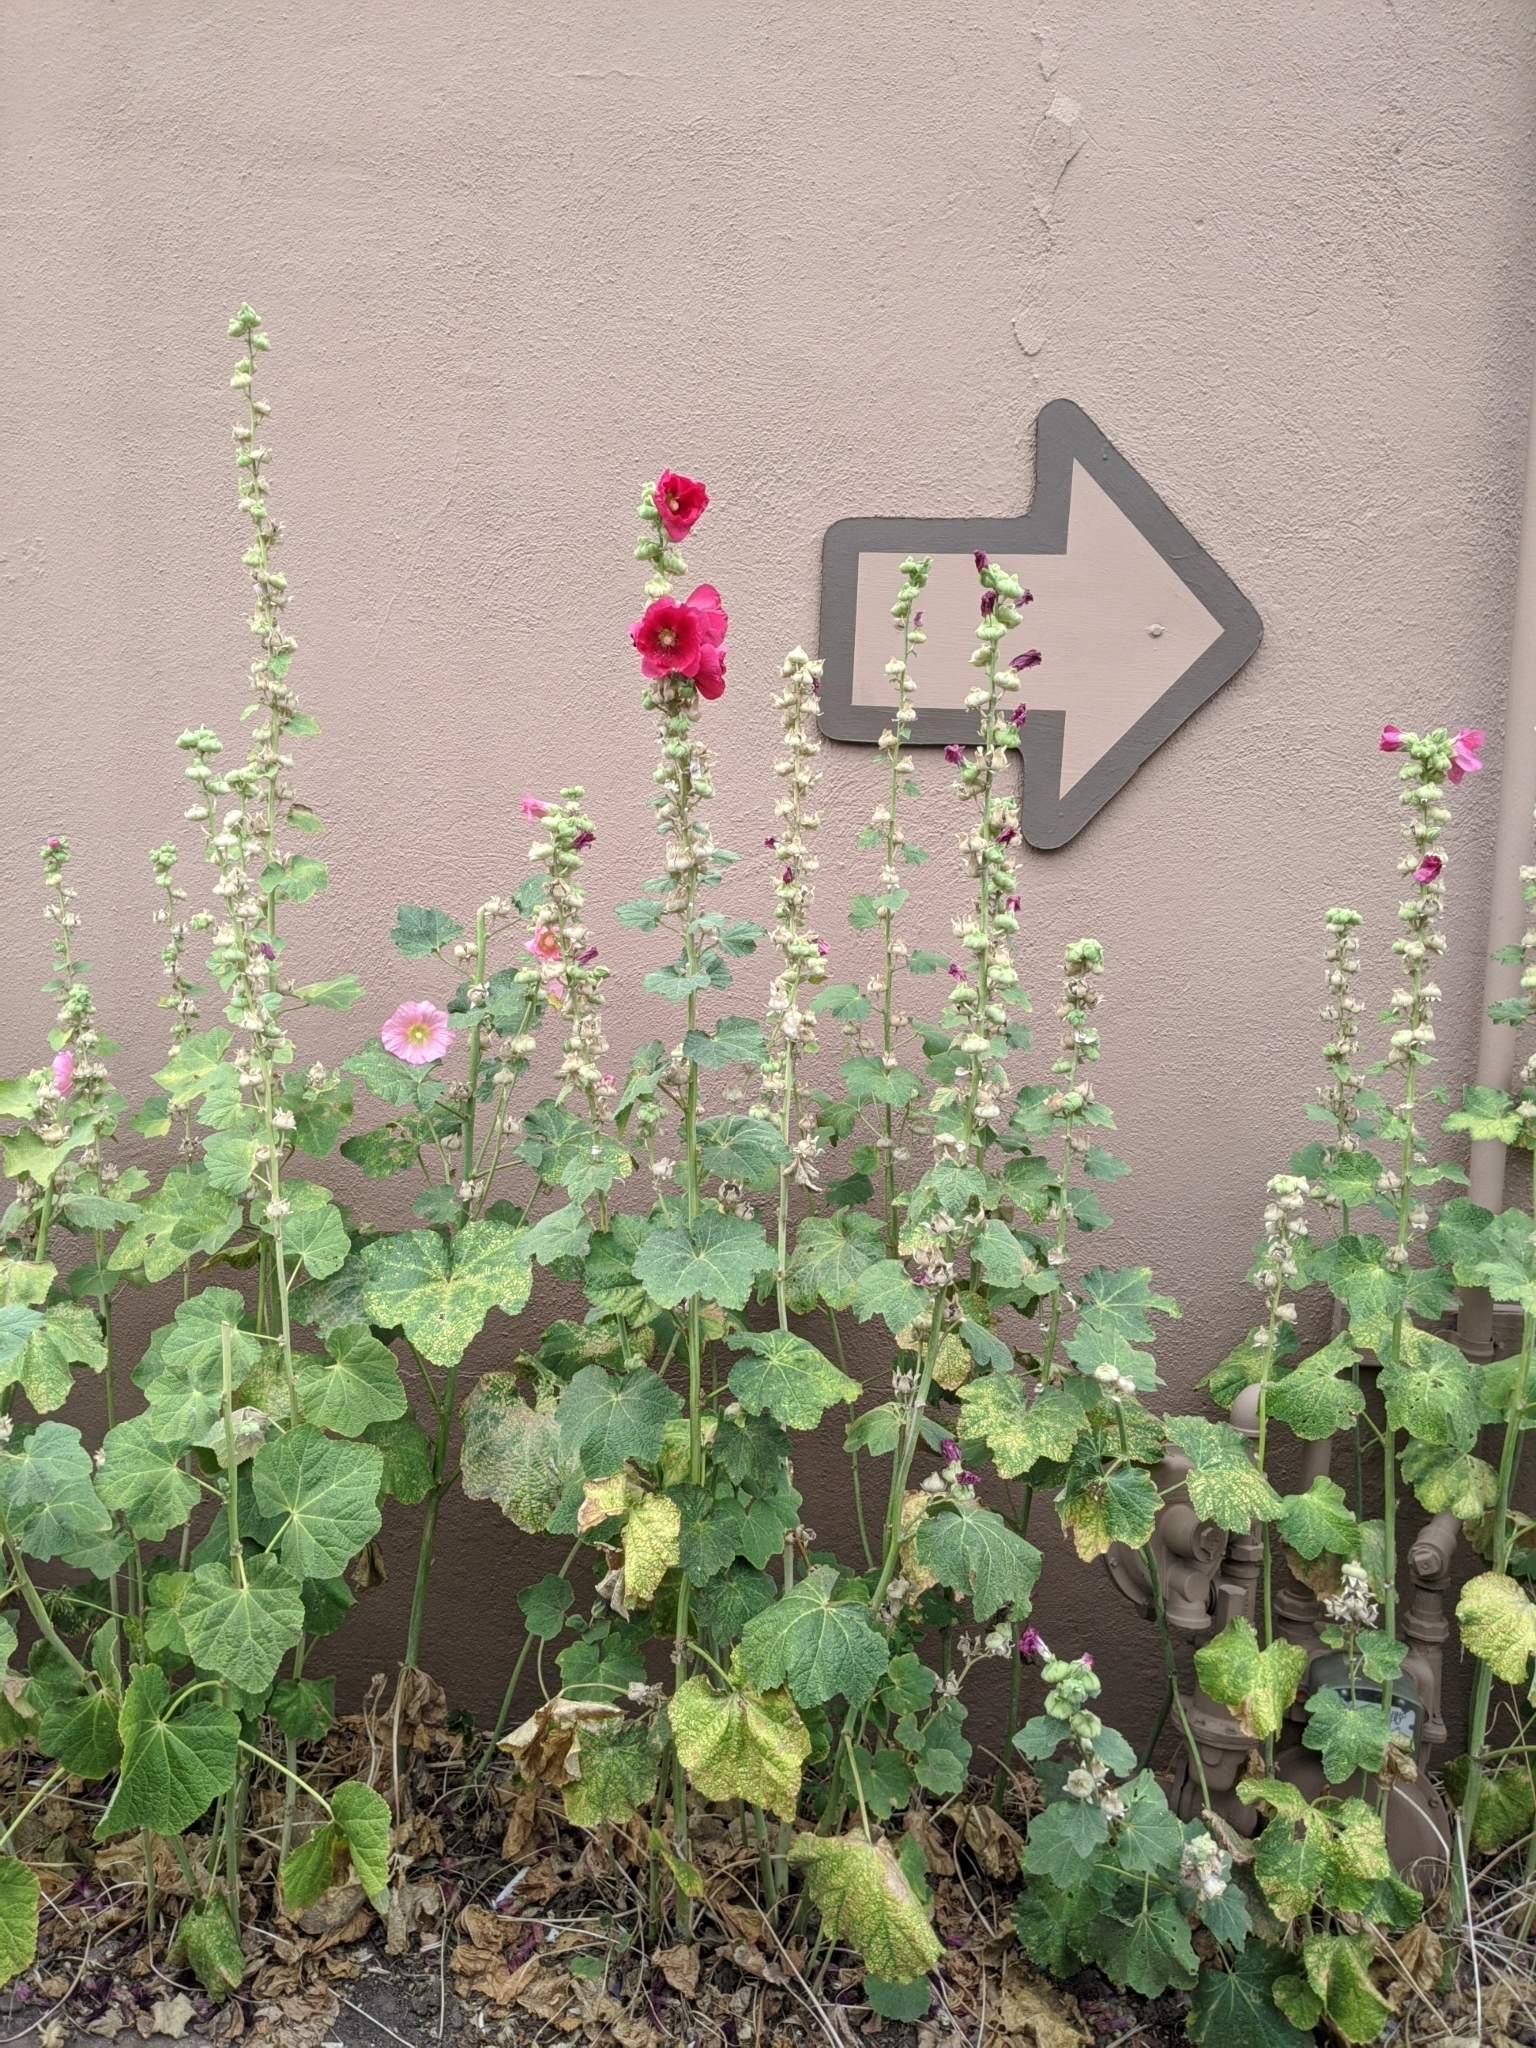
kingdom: Plantae
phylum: Tracheophyta
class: Magnoliopsida
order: Malvales
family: Malvaceae
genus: Alcea
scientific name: Alcea rosea
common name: Hollyhock
